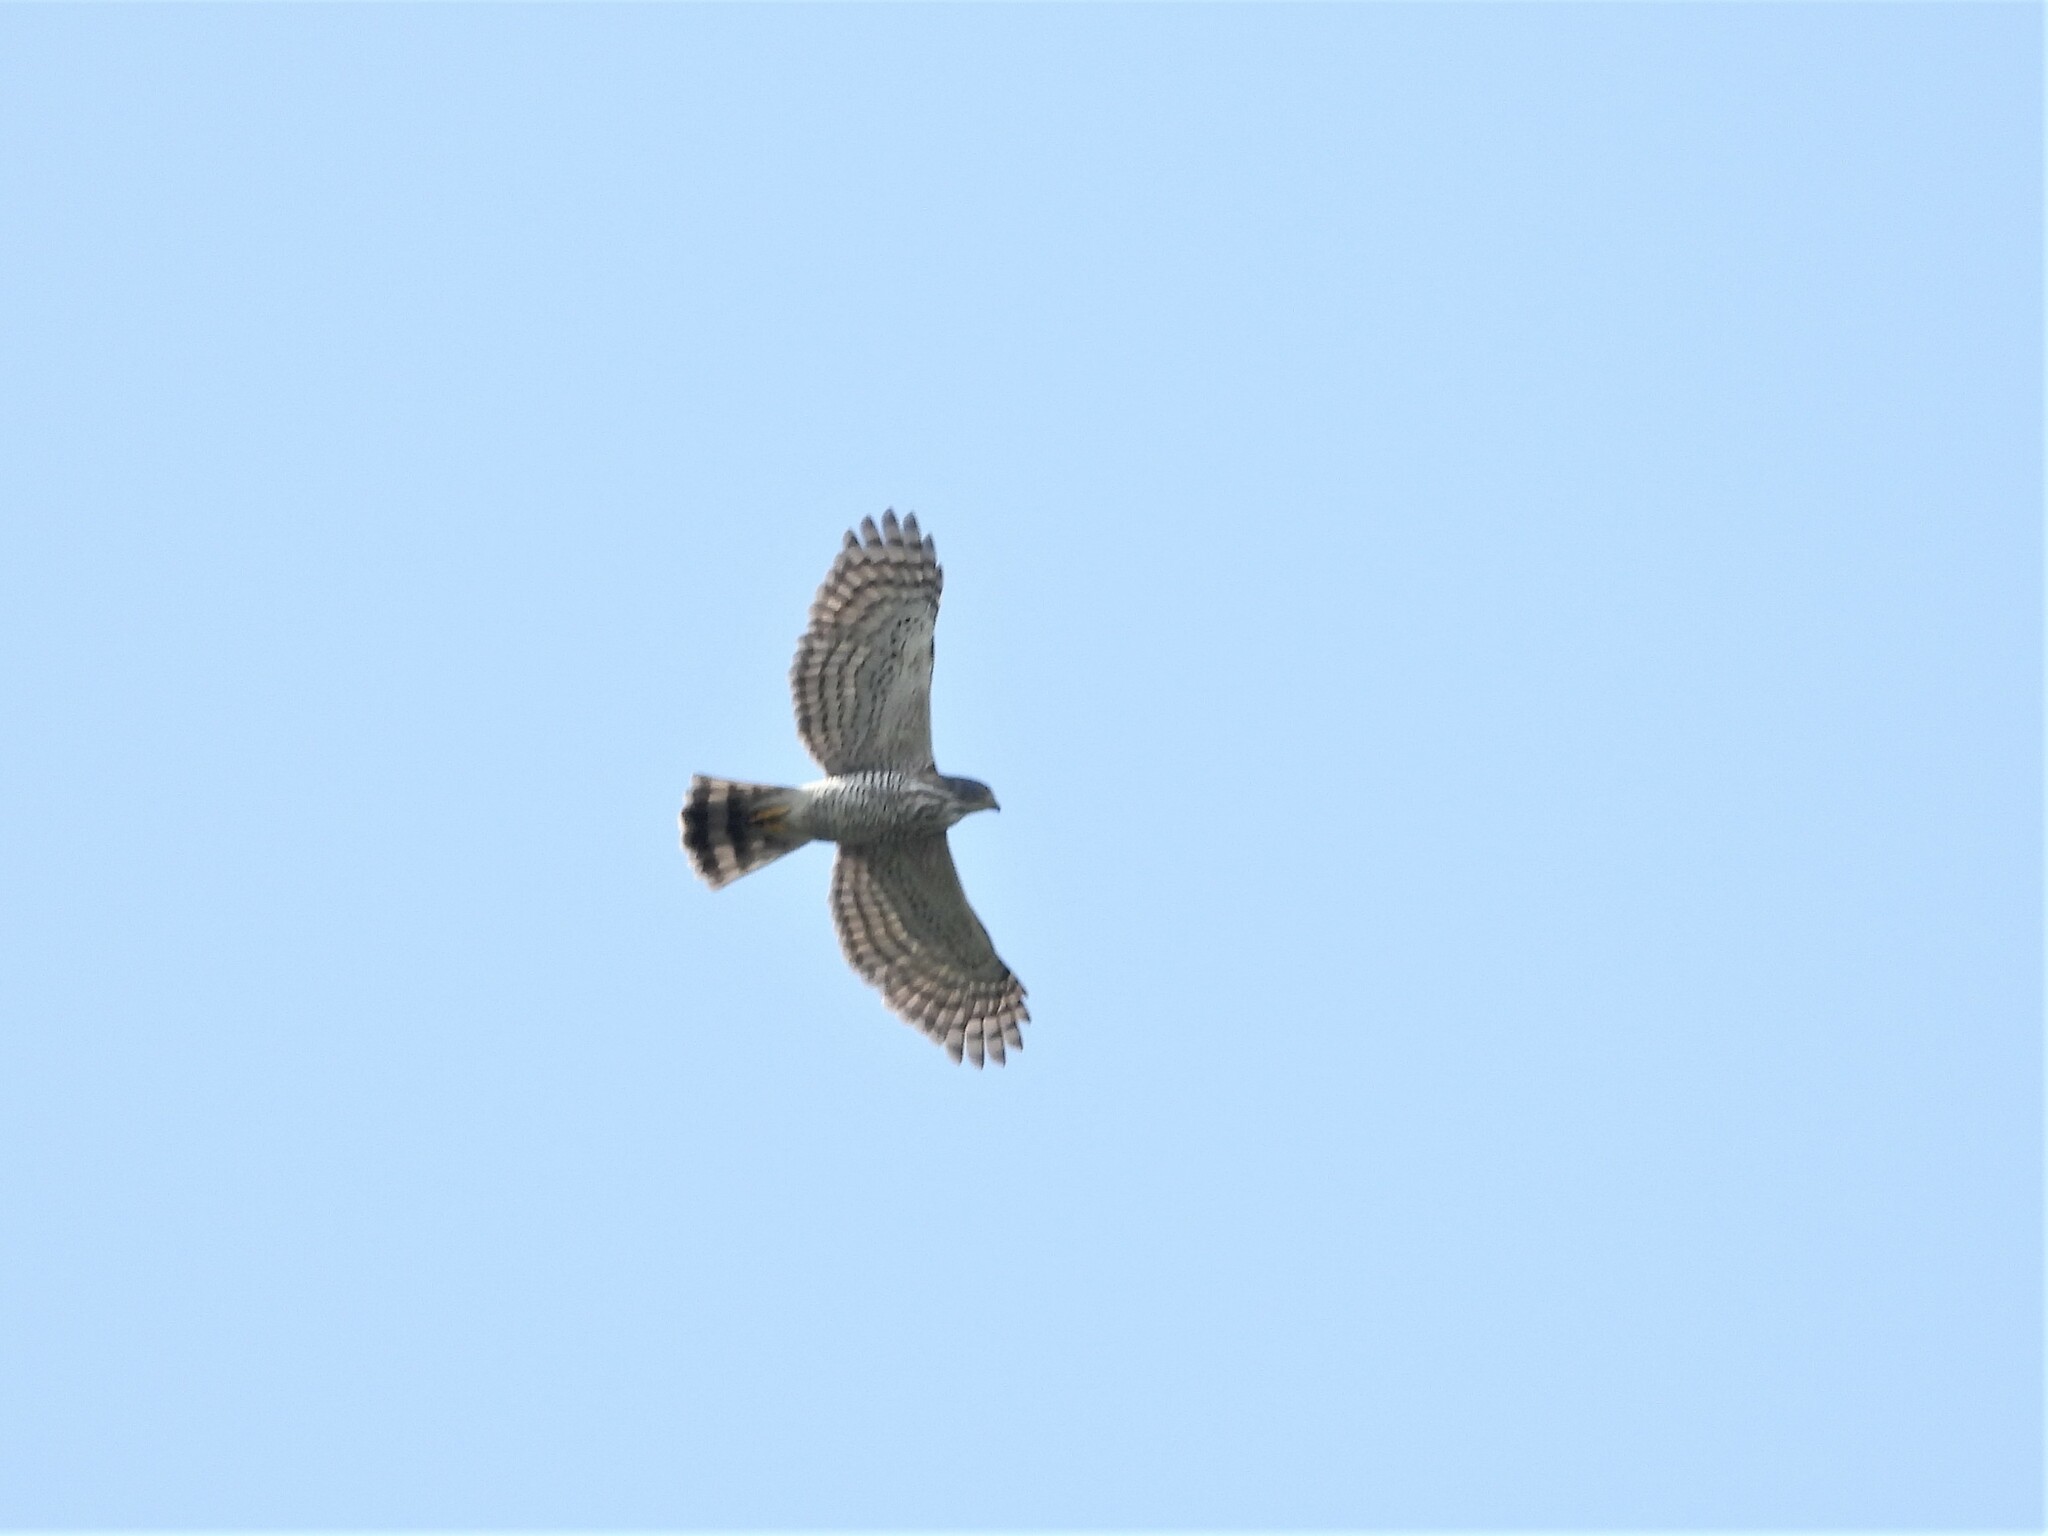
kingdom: Animalia
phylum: Chordata
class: Aves
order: Accipitriformes
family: Accipitridae
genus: Accipiter
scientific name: Accipiter trivirgatus
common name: Crested goshawk
